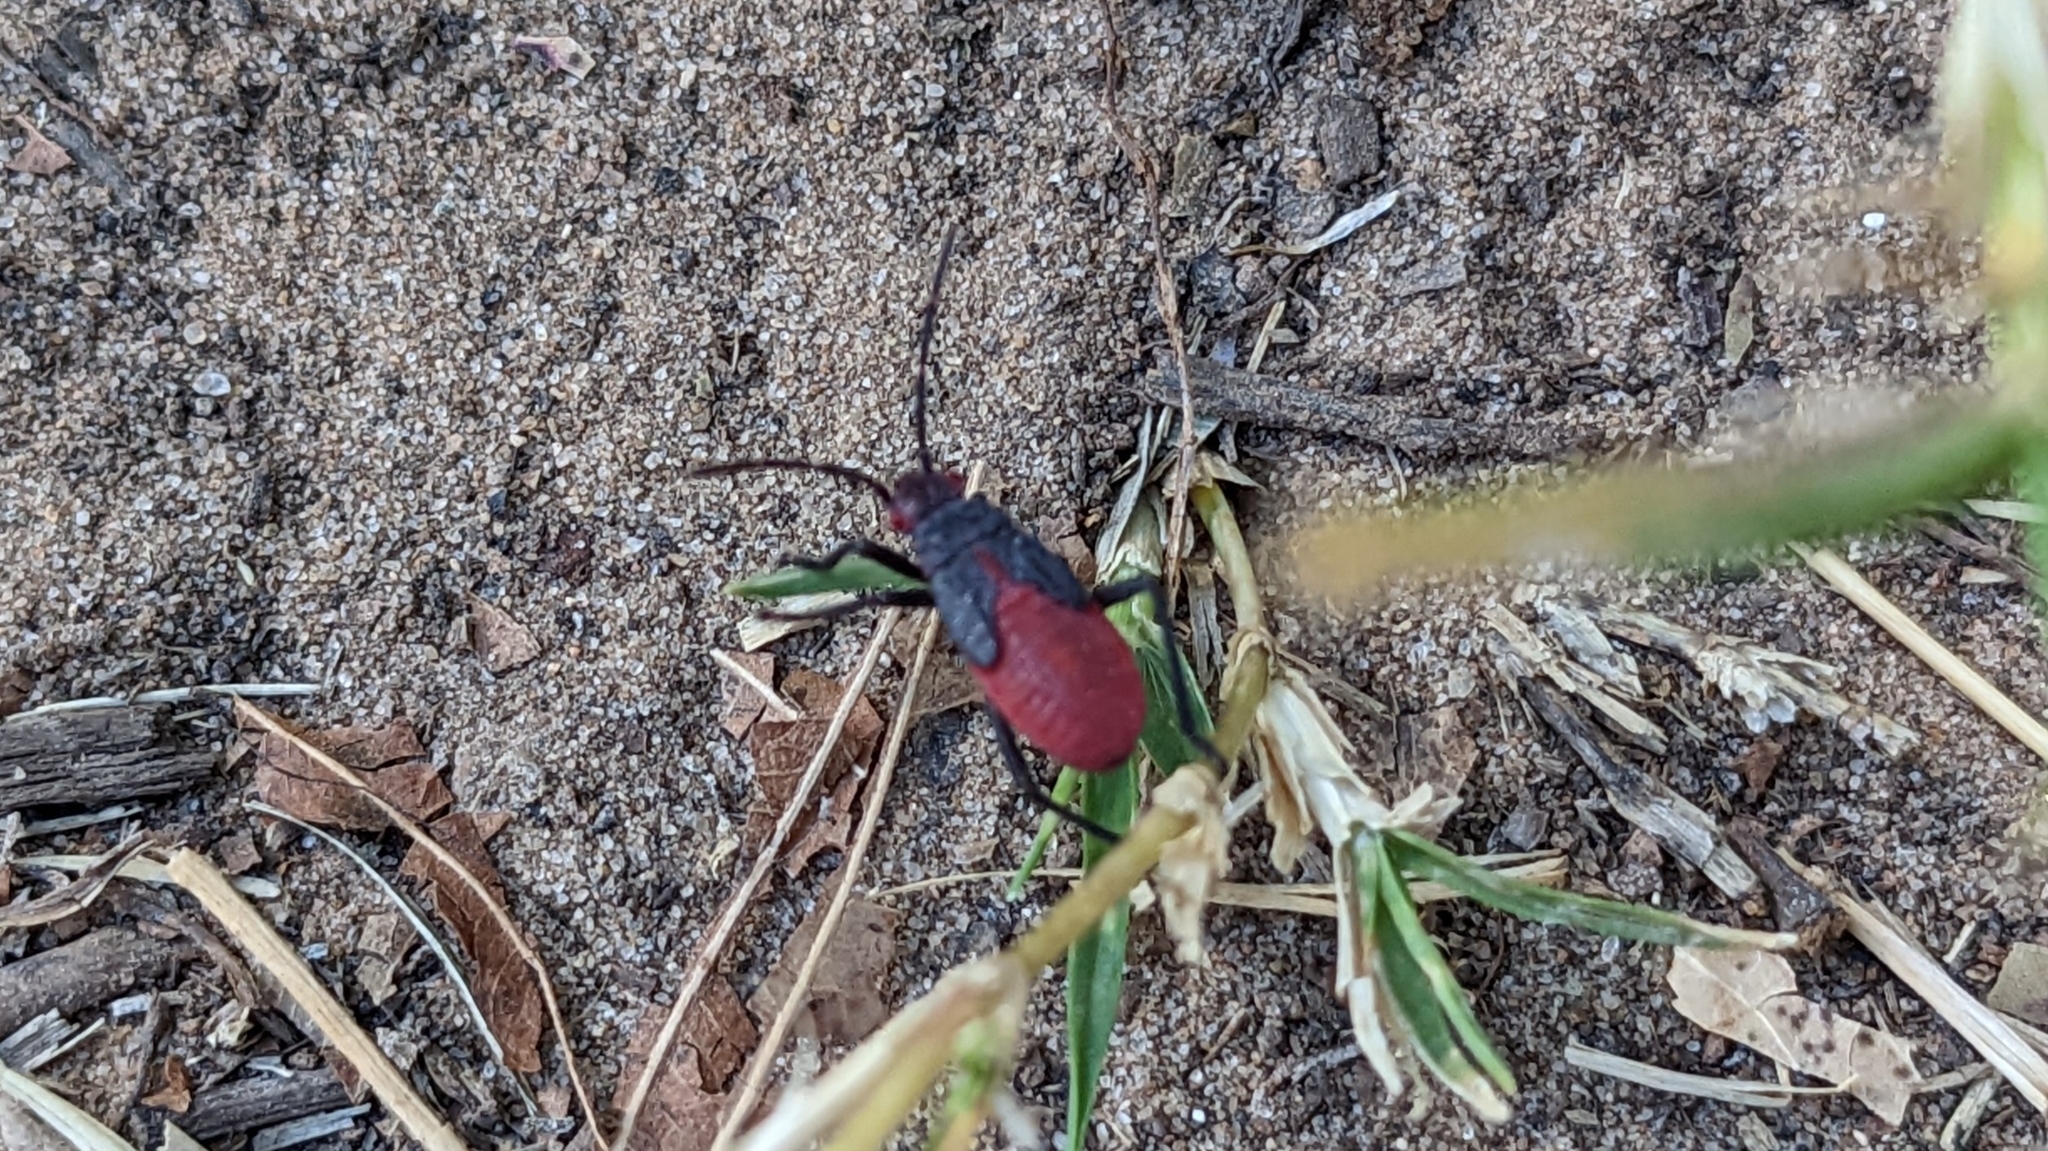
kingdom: Animalia
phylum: Arthropoda
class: Insecta
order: Hemiptera
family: Rhopalidae
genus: Jadera
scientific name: Jadera haematoloma
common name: Red-shouldered bug
